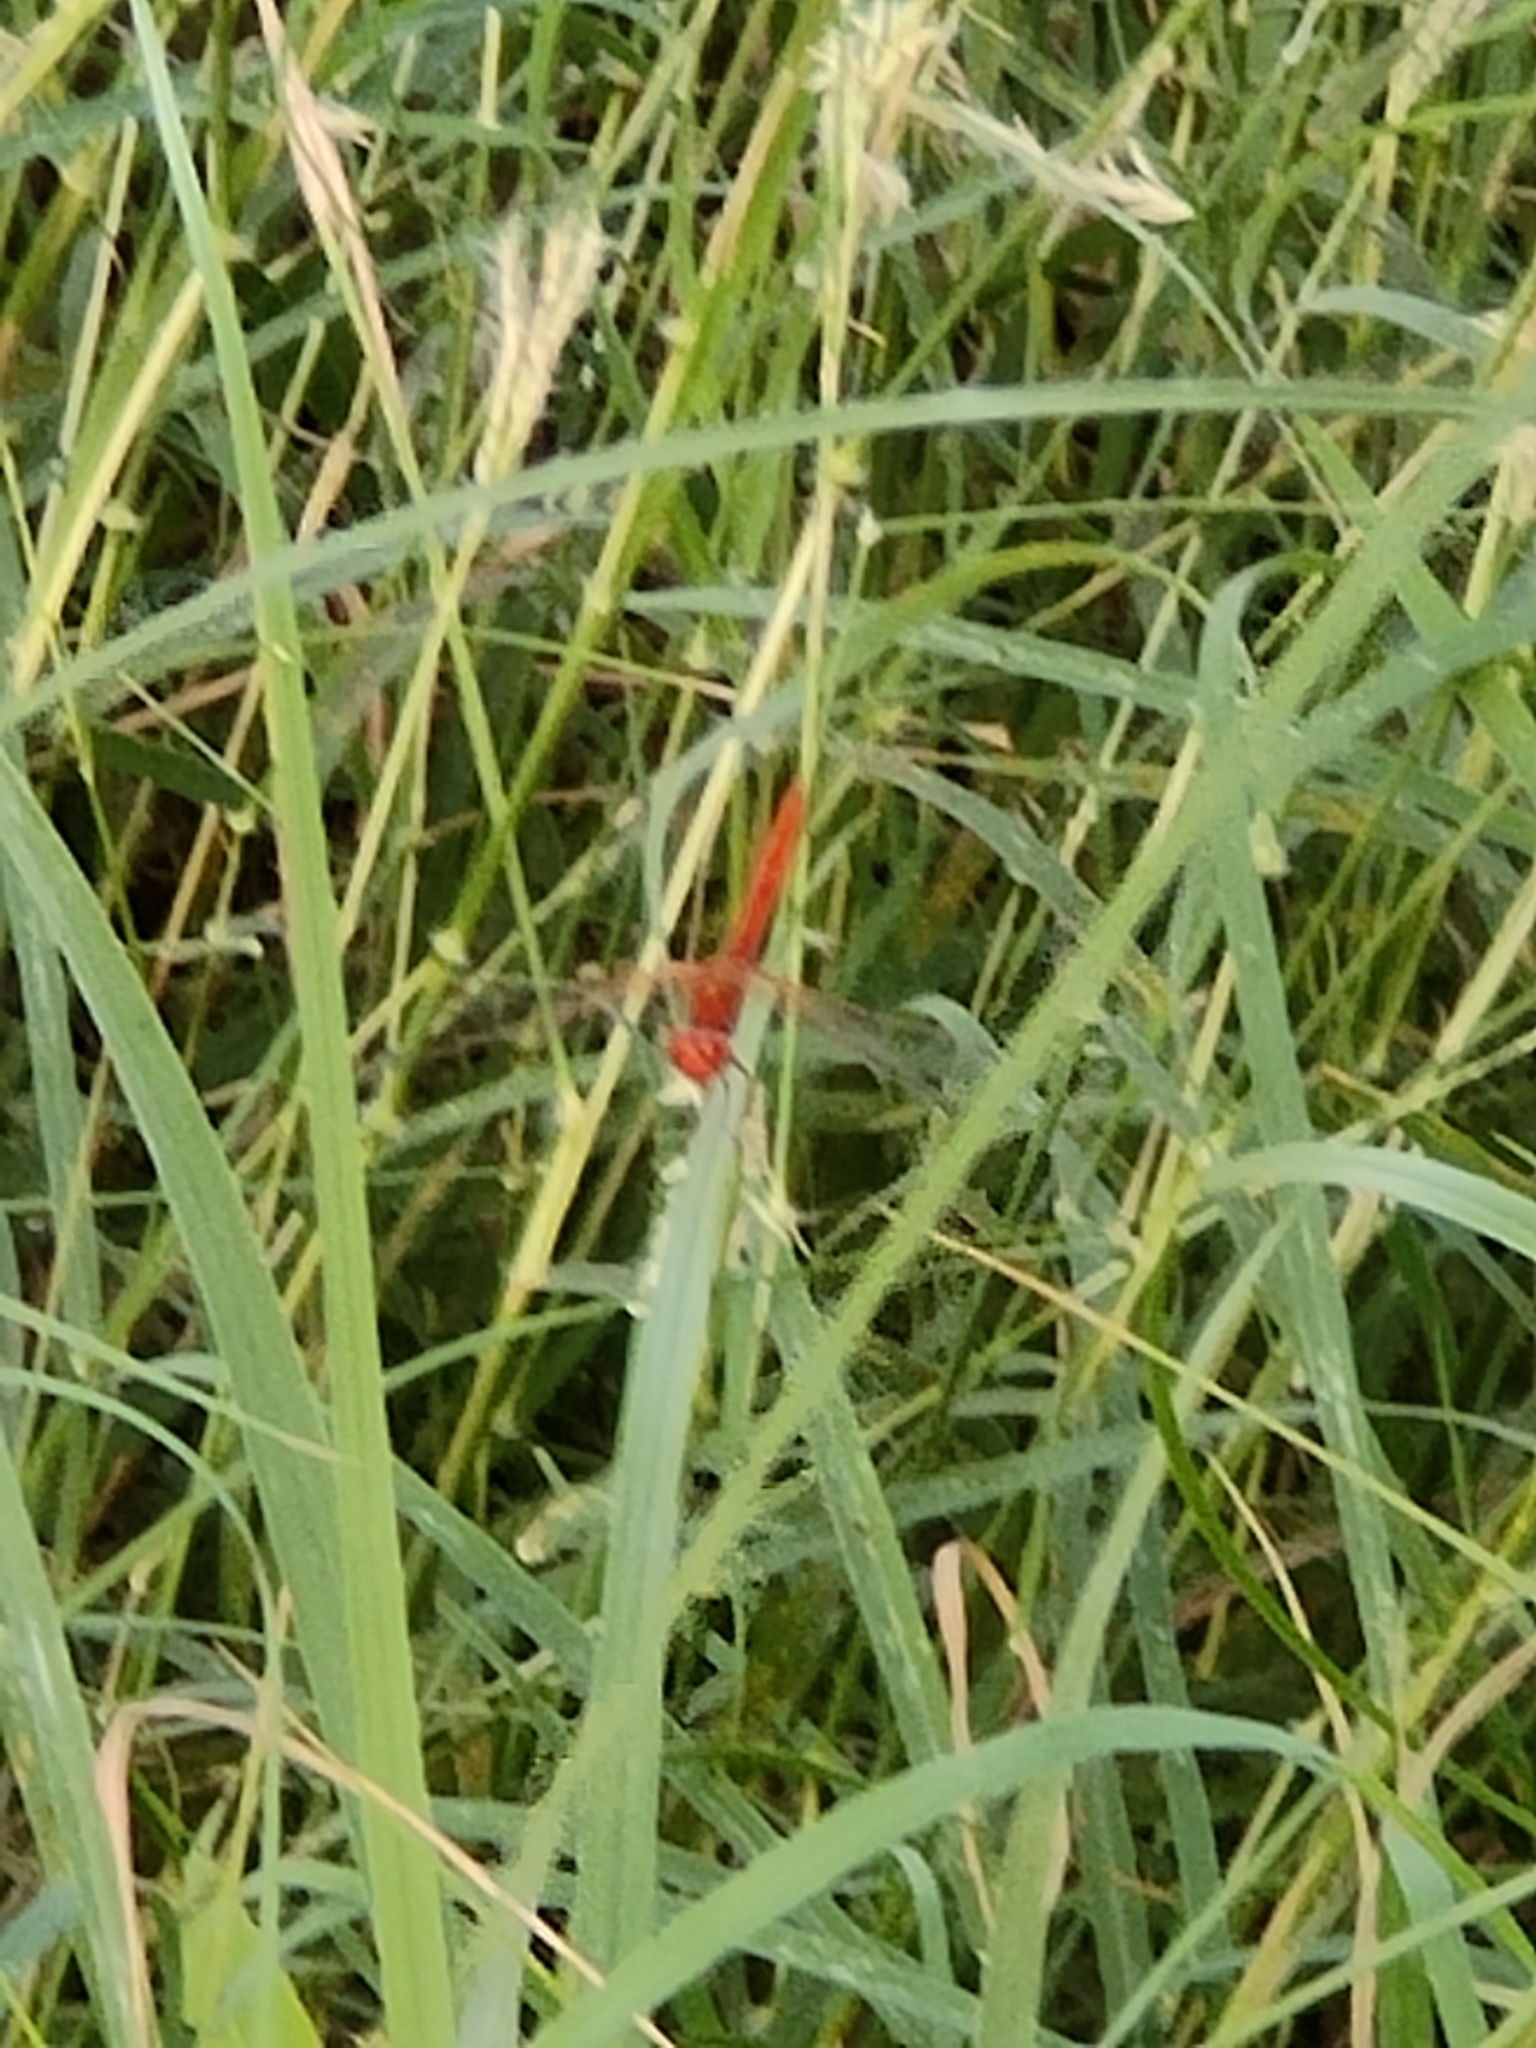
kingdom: Animalia
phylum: Arthropoda
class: Insecta
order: Odonata
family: Libellulidae
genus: Diplacodes
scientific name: Diplacodes haematodes
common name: Scarlet percher
